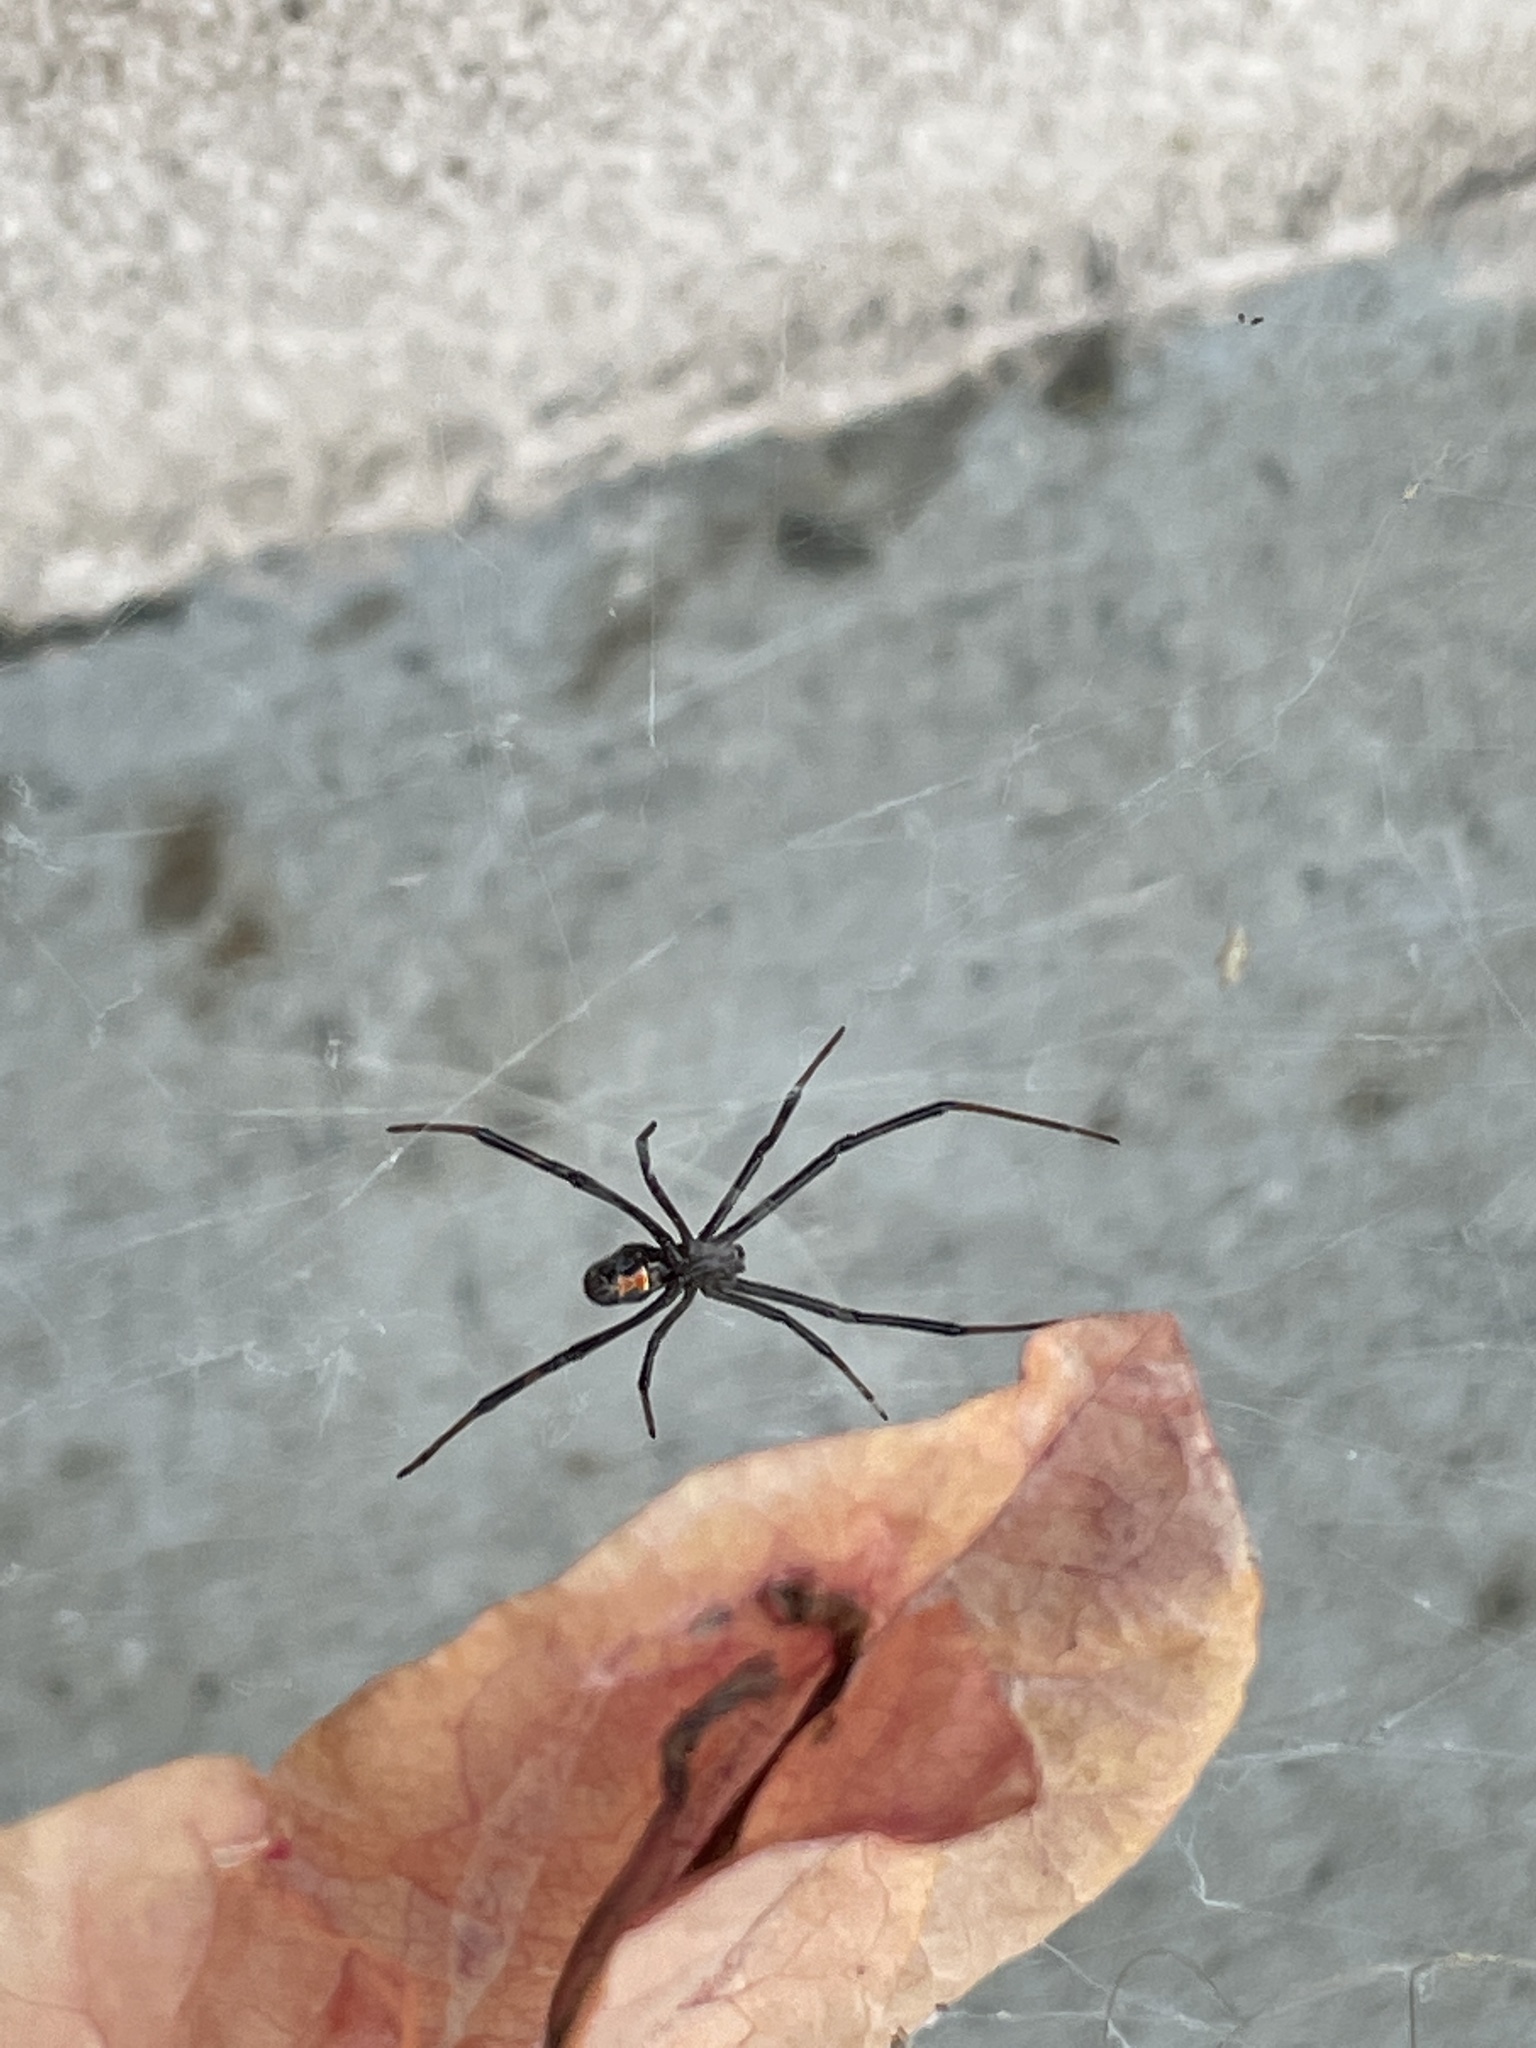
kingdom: Animalia
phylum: Arthropoda
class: Arachnida
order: Araneae
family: Theridiidae
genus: Latrodectus
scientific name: Latrodectus hesperus
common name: Western black widow
